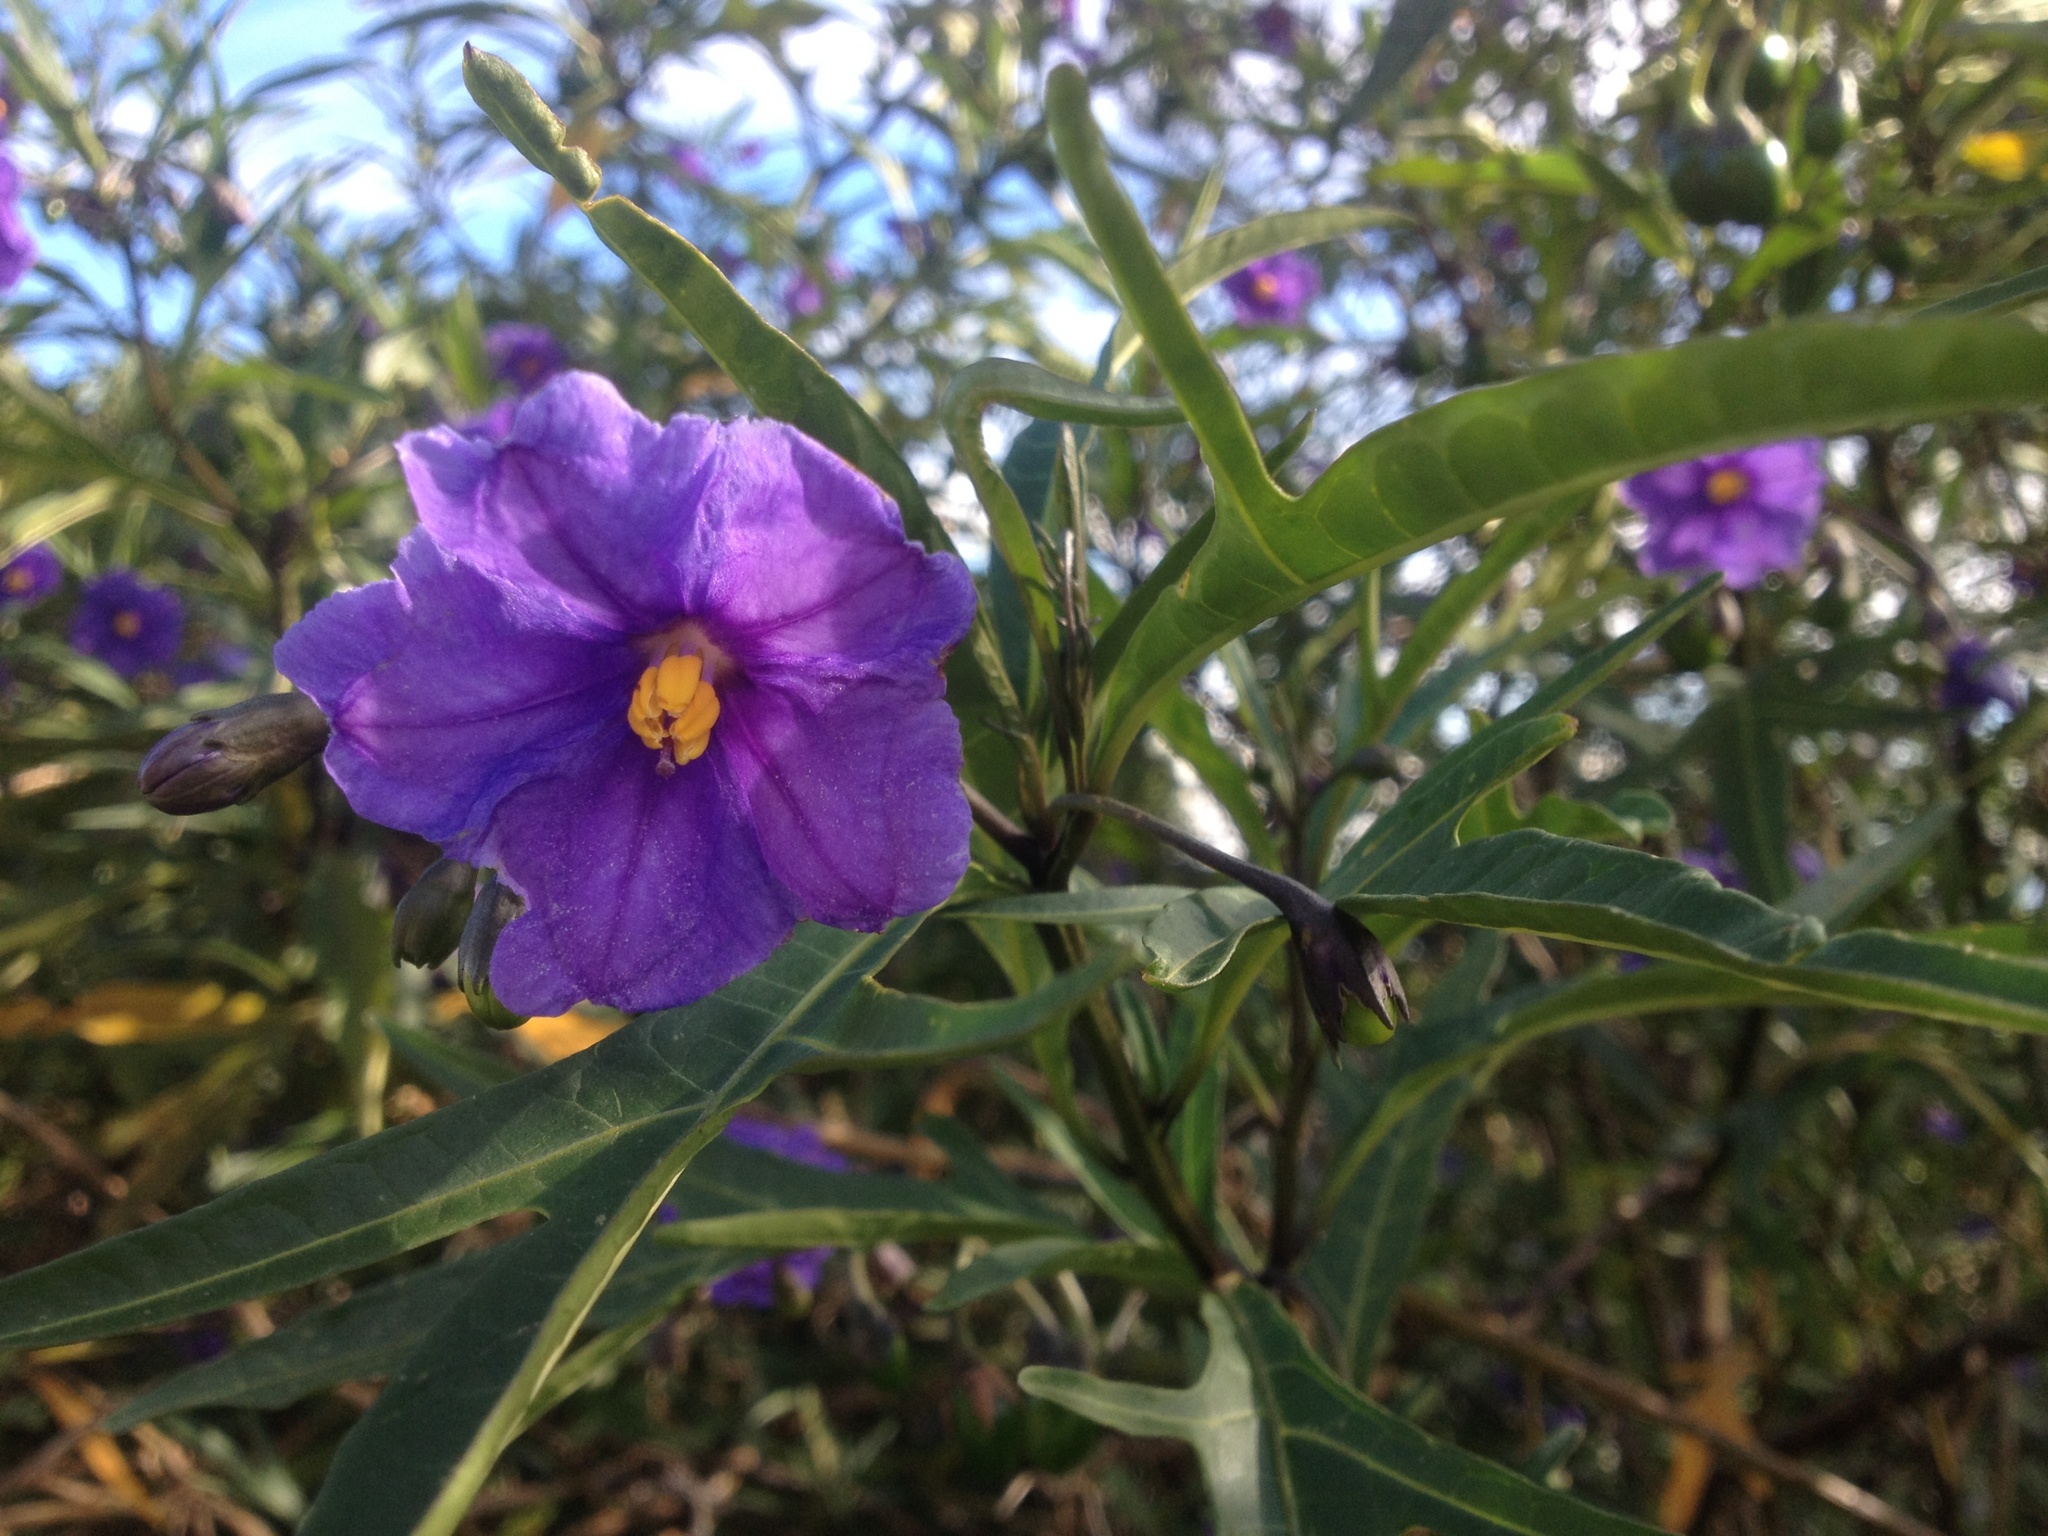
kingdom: Plantae
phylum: Tracheophyta
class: Magnoliopsida
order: Solanales
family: Solanaceae
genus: Solanum
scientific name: Solanum laciniatum
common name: Kangaroo-apple
